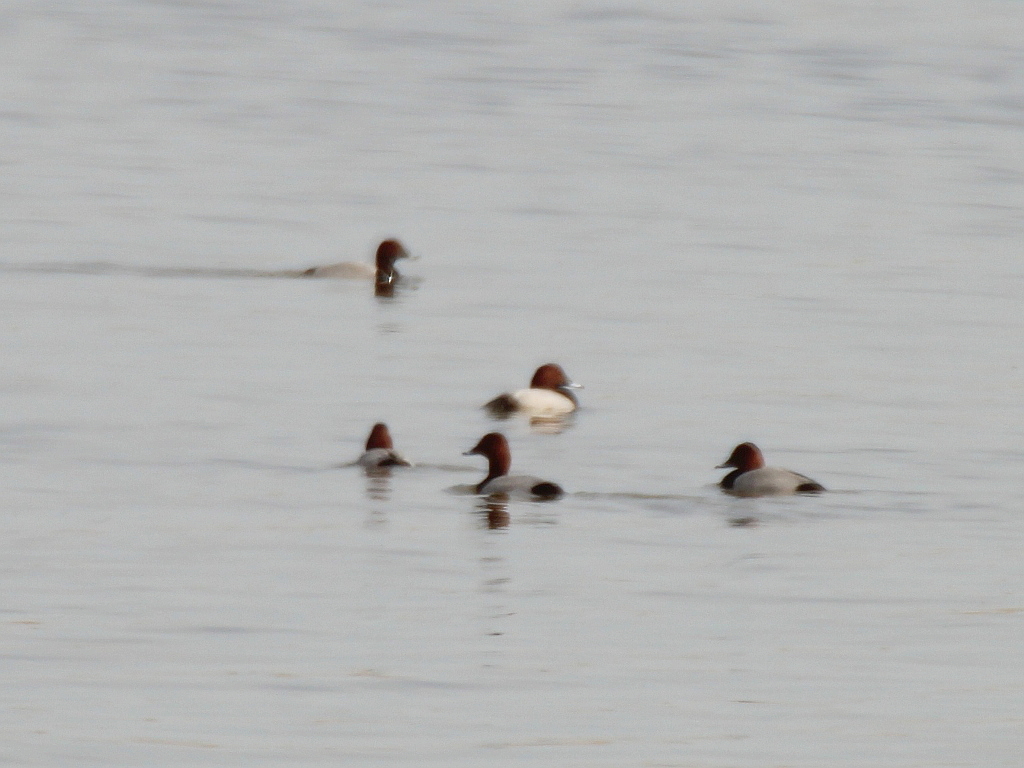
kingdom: Animalia
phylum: Chordata
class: Aves
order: Anseriformes
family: Anatidae
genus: Aythya
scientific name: Aythya ferina
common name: Common pochard
